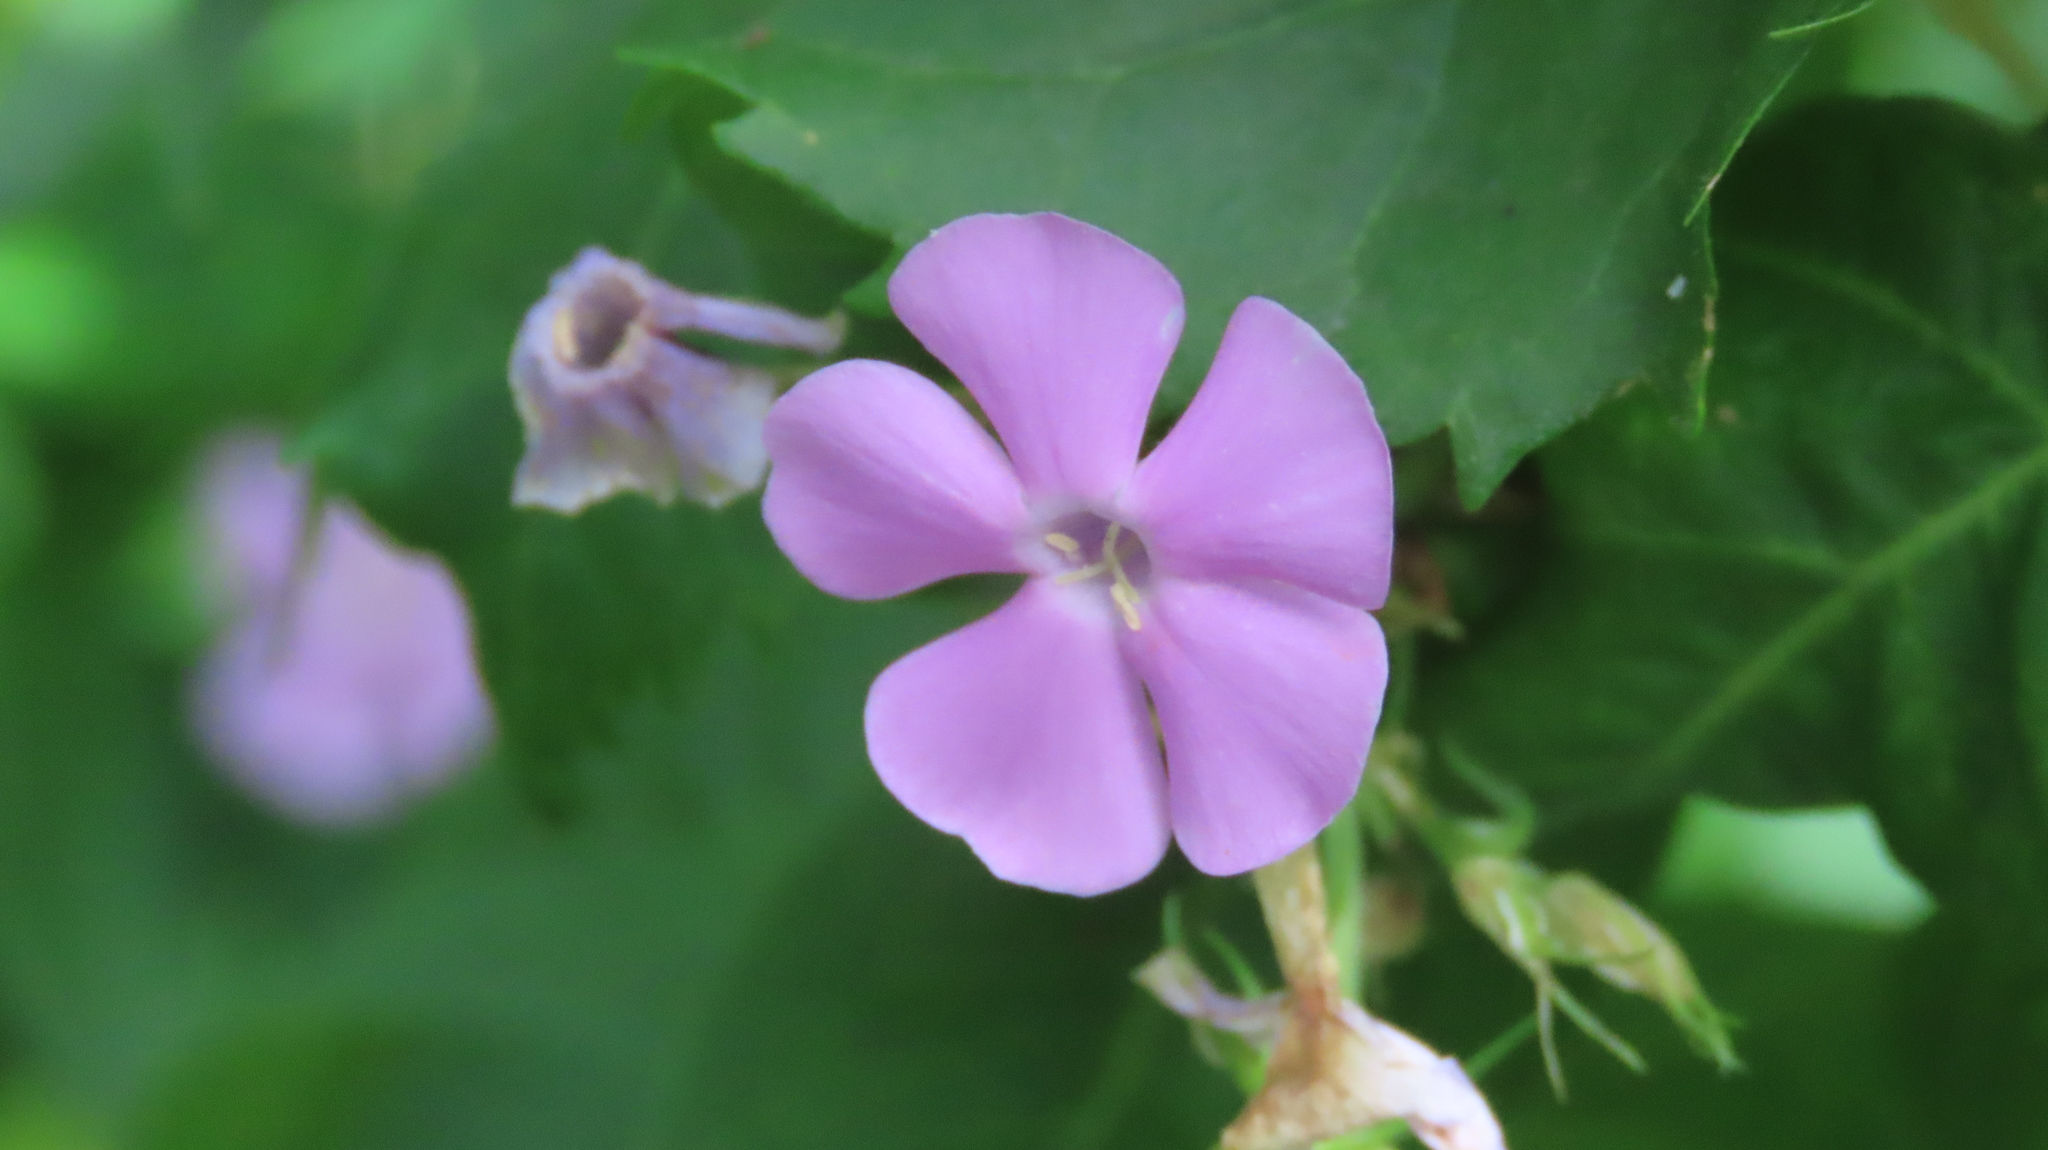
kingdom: Plantae
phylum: Tracheophyta
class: Magnoliopsida
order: Ericales
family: Polemoniaceae
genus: Phlox
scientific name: Phlox paniculata
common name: Fall phlox
